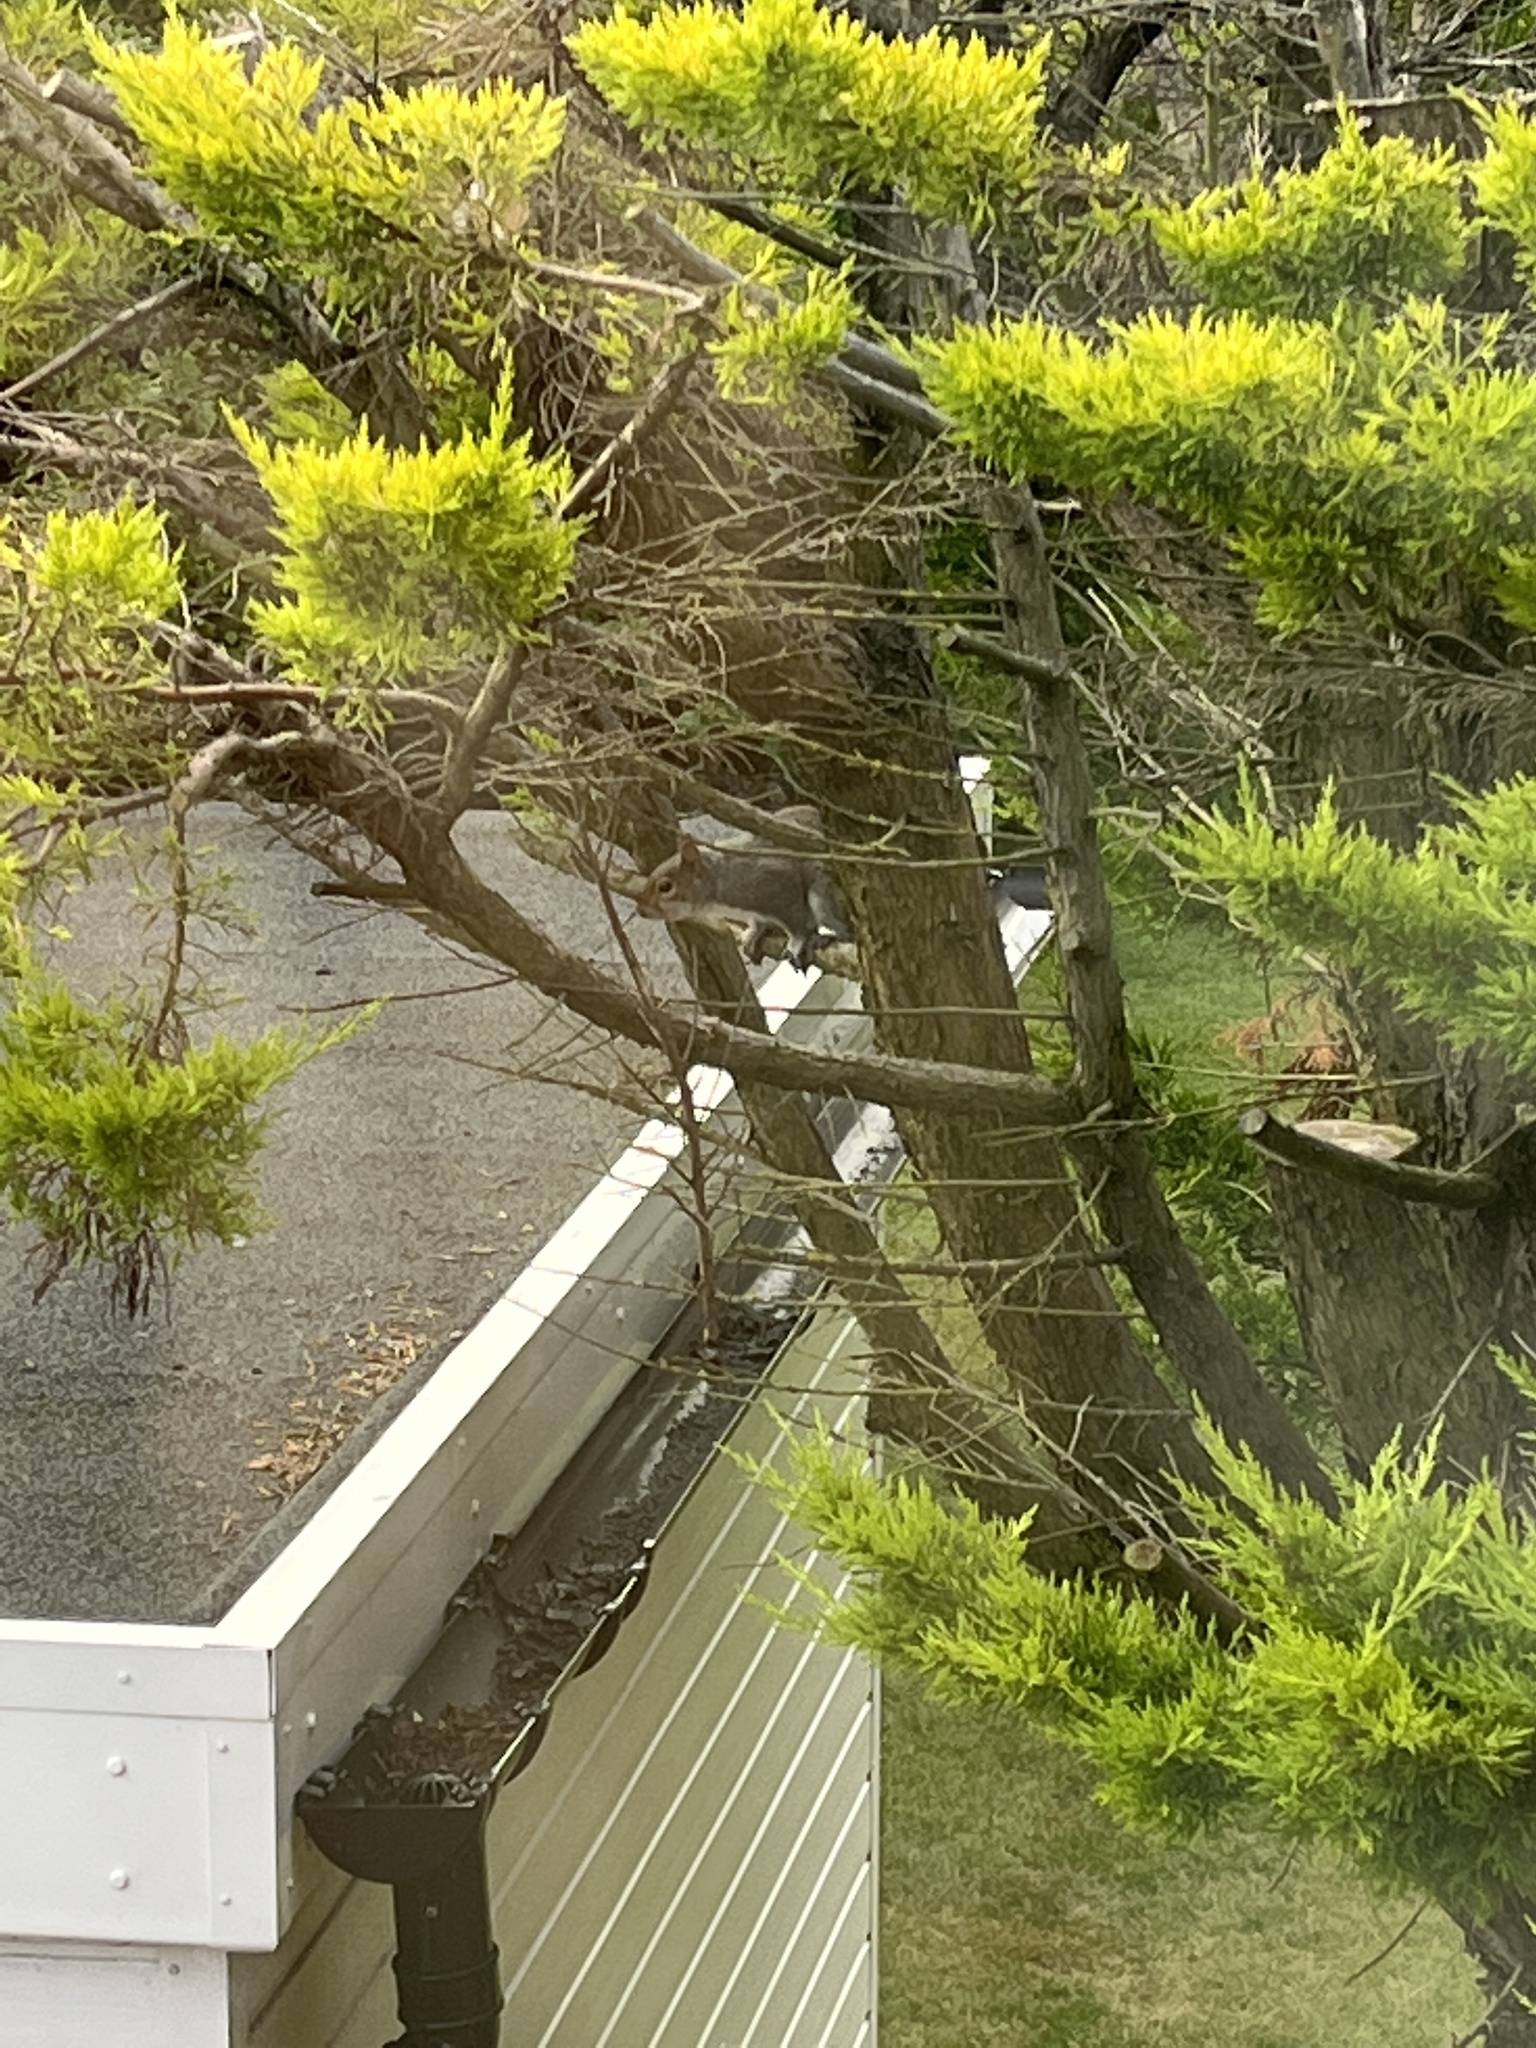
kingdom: Animalia
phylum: Chordata
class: Mammalia
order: Rodentia
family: Sciuridae
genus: Sciurus
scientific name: Sciurus carolinensis
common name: Eastern gray squirrel
